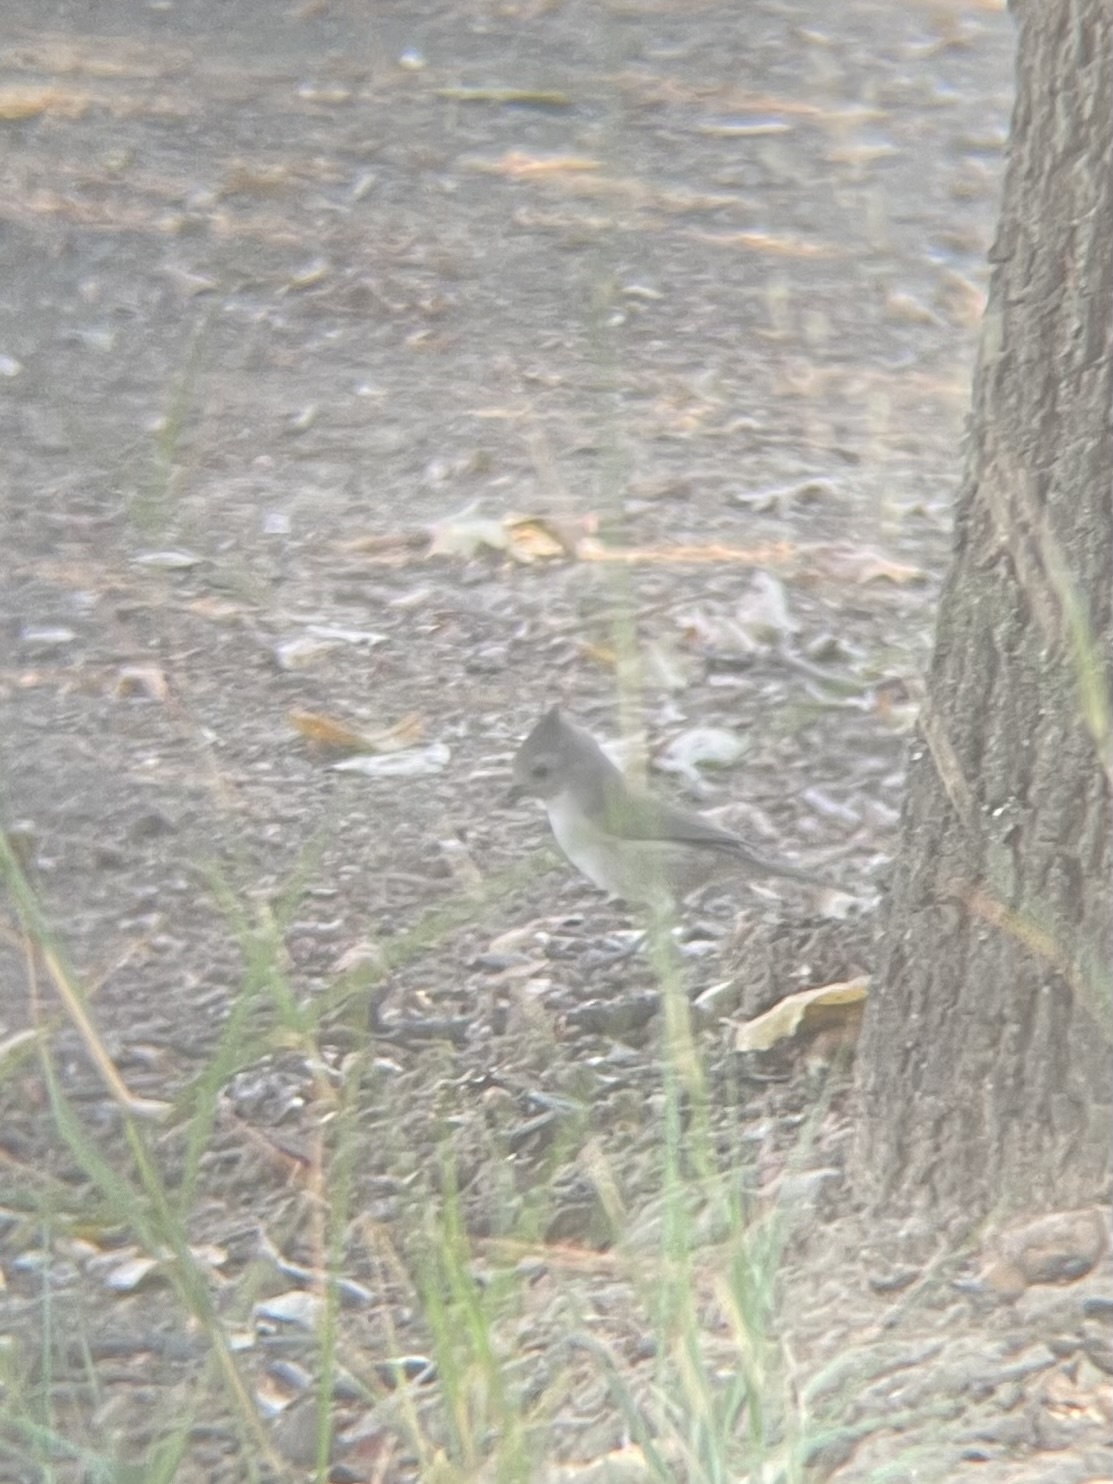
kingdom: Animalia
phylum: Chordata
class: Aves
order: Passeriformes
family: Paridae
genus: Baeolophus
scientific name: Baeolophus inornatus
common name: Oak titmouse
